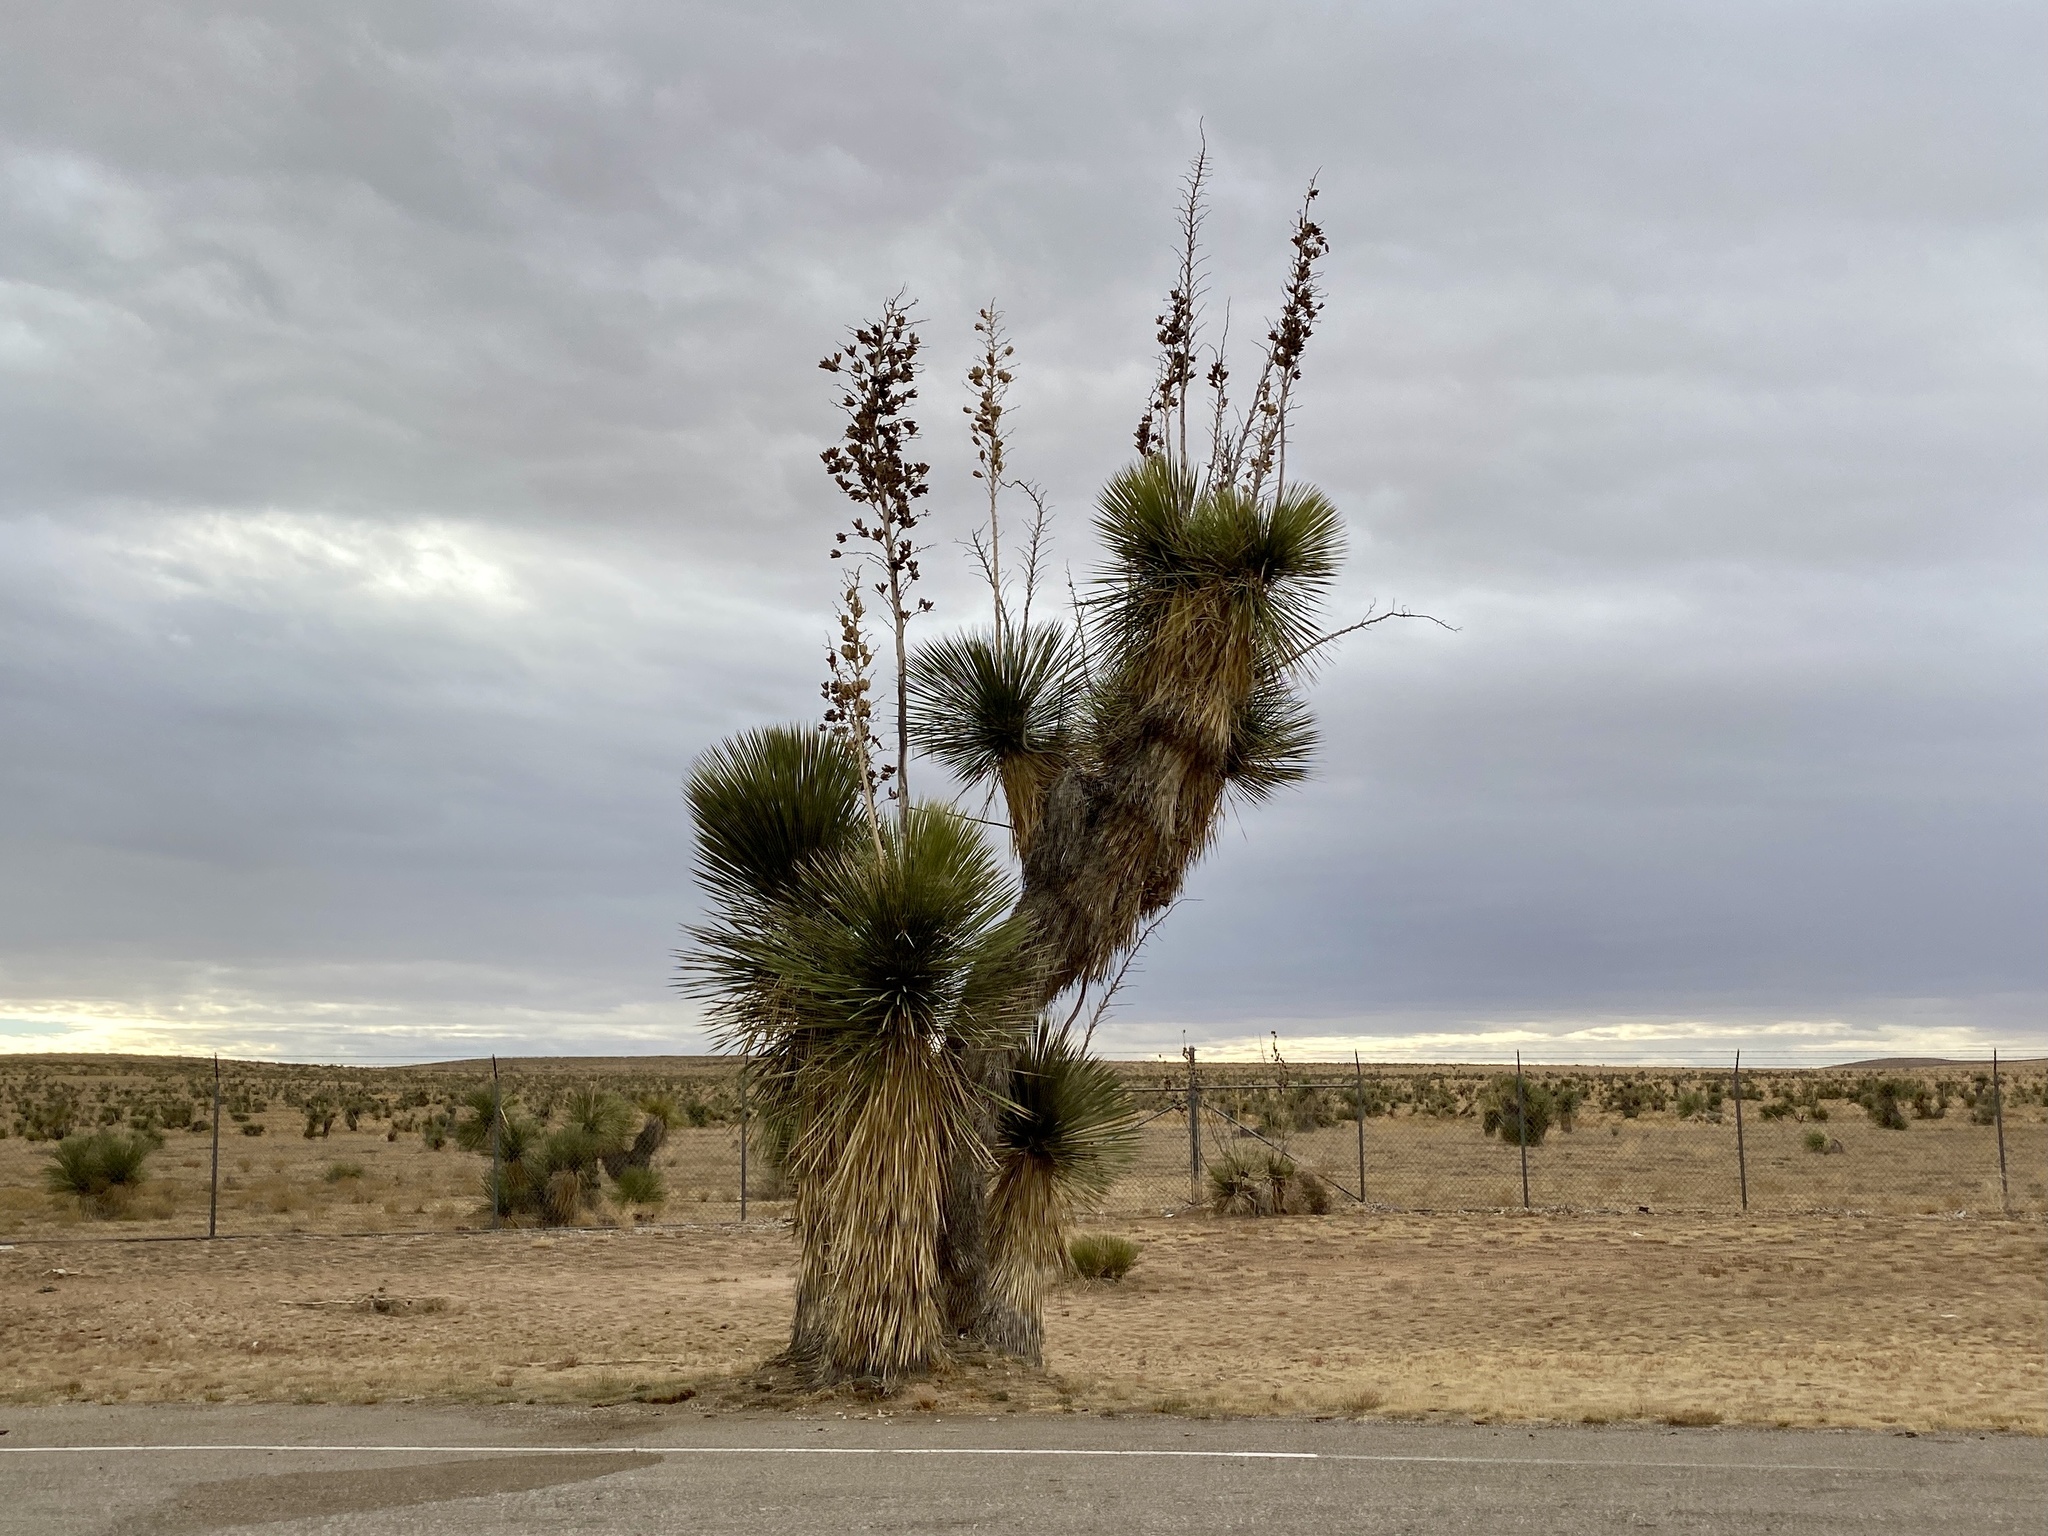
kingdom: Plantae
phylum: Tracheophyta
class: Liliopsida
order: Asparagales
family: Asparagaceae
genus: Yucca
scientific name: Yucca elata
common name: Palmella
